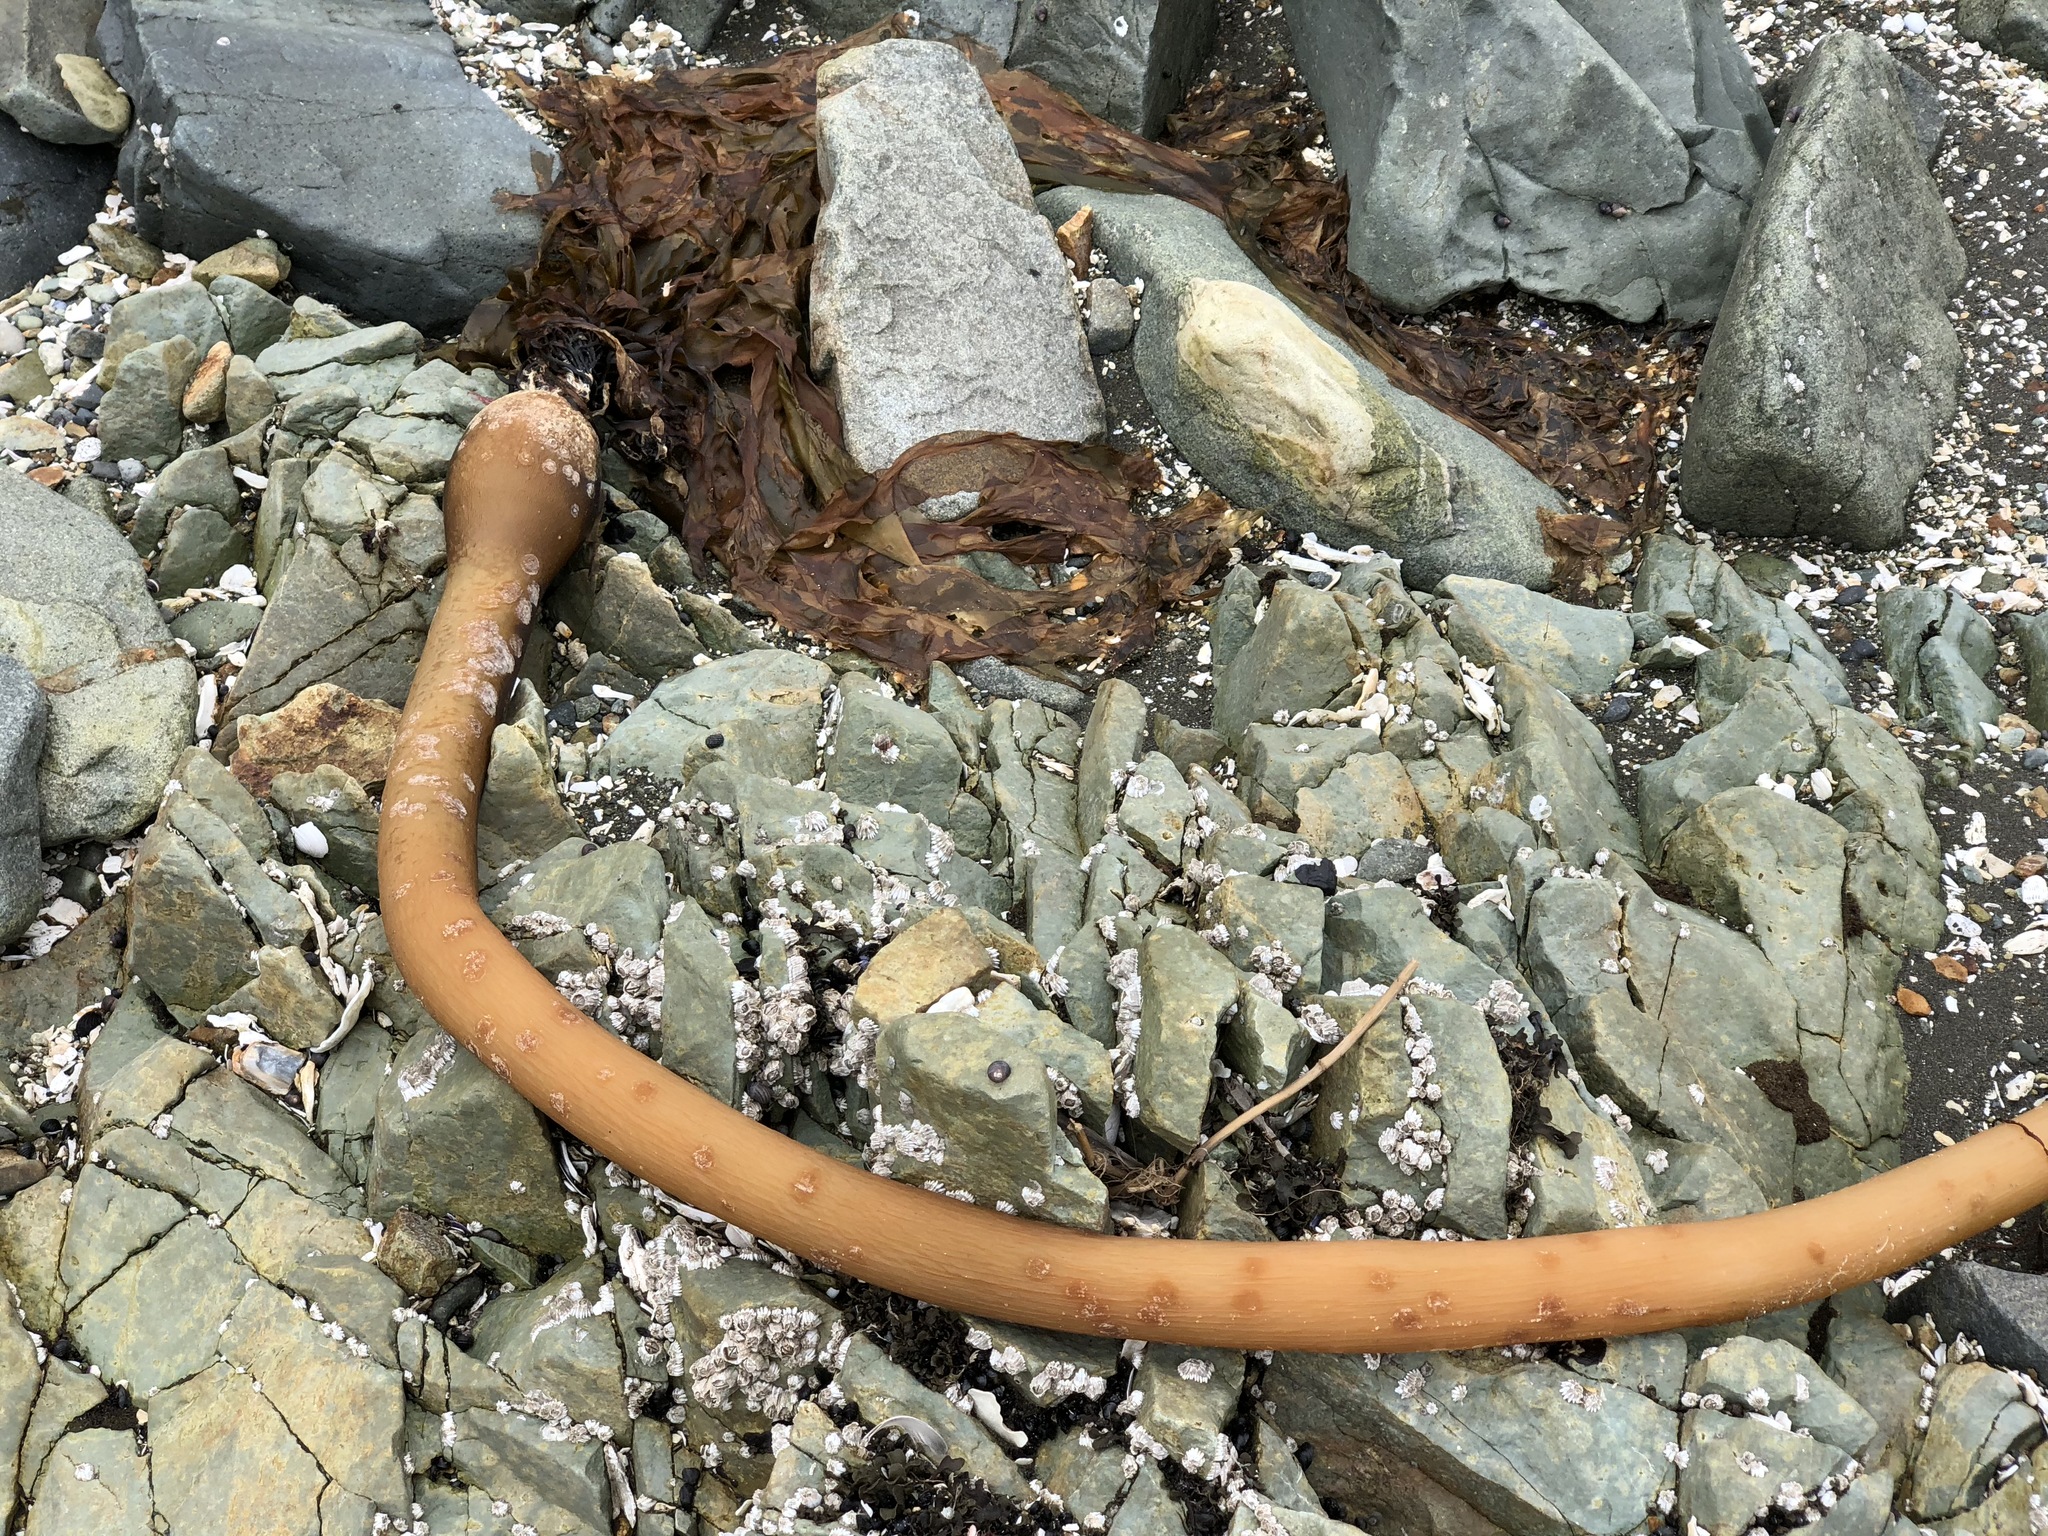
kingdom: Chromista
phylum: Ochrophyta
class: Phaeophyceae
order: Laminariales
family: Laminariaceae
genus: Nereocystis
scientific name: Nereocystis luetkeana
